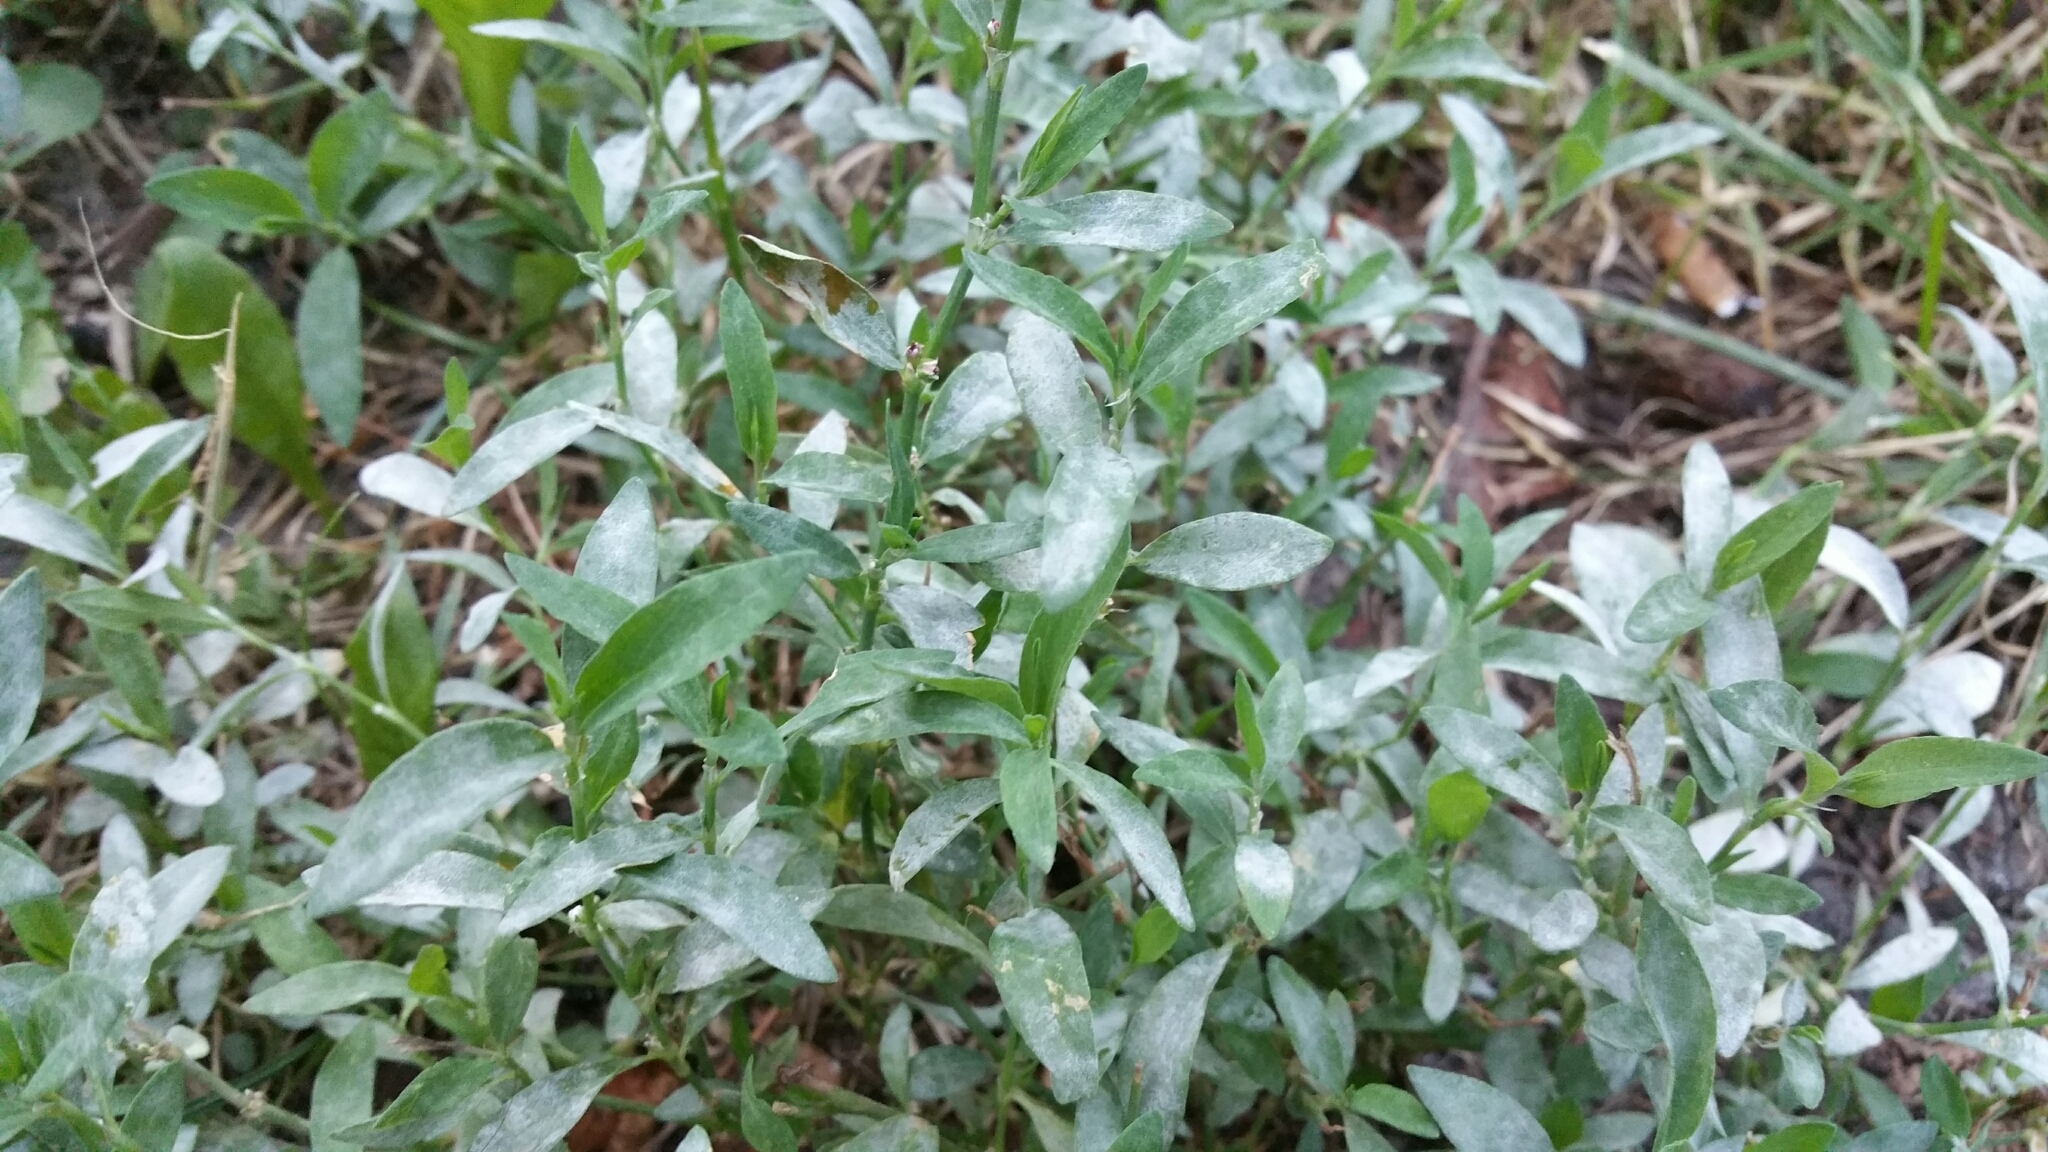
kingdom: Fungi
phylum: Ascomycota
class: Leotiomycetes
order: Helotiales
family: Erysiphaceae
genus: Erysiphe
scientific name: Erysiphe polygoni
